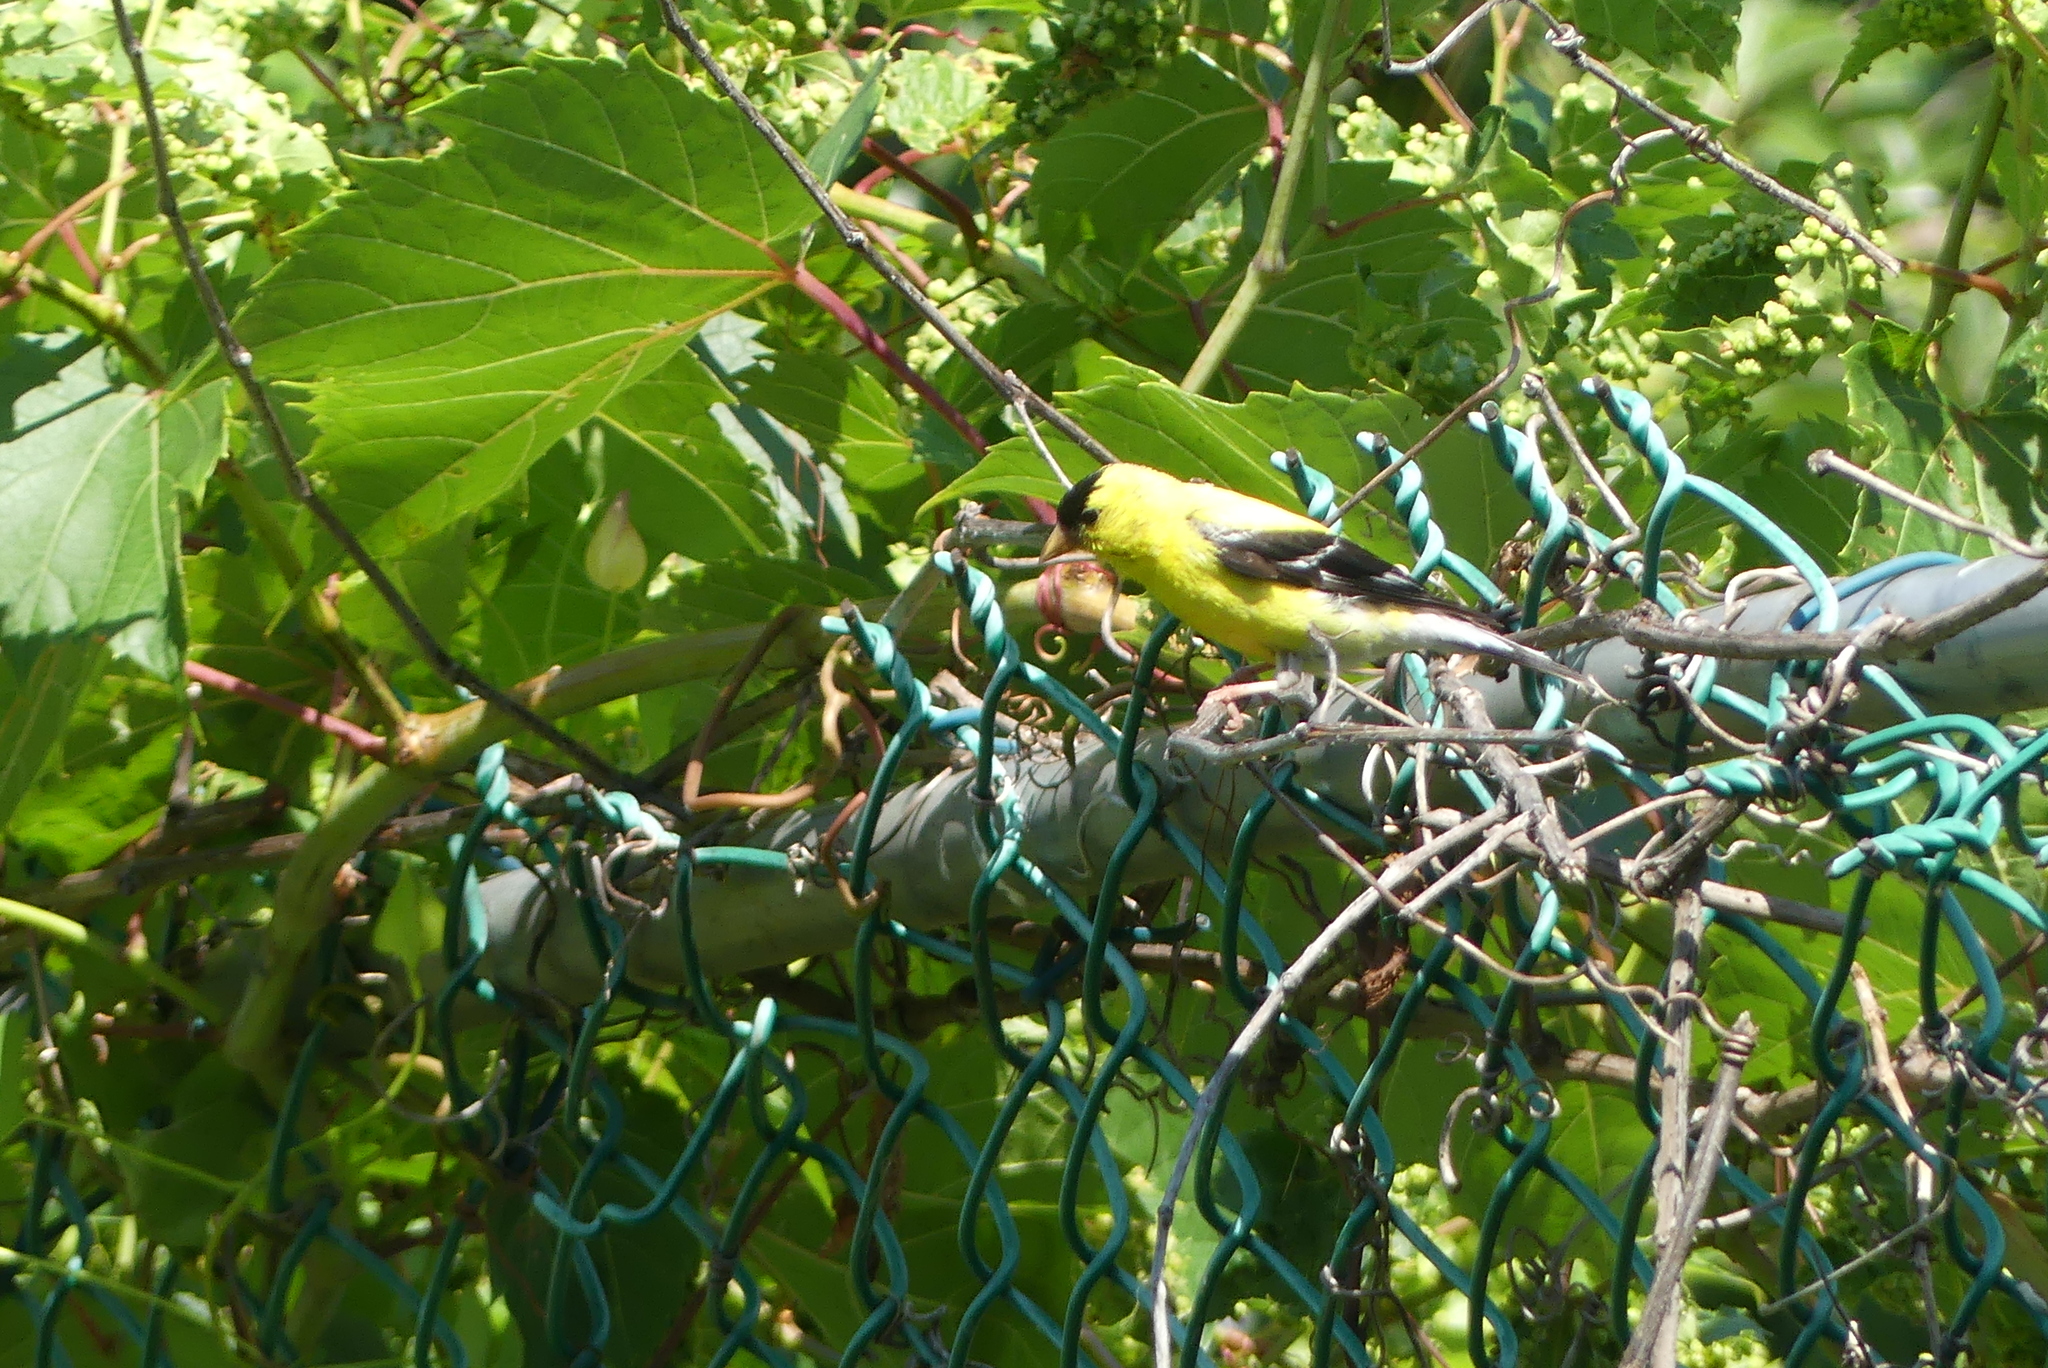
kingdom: Animalia
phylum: Chordata
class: Aves
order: Passeriformes
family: Fringillidae
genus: Spinus
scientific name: Spinus tristis
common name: American goldfinch
